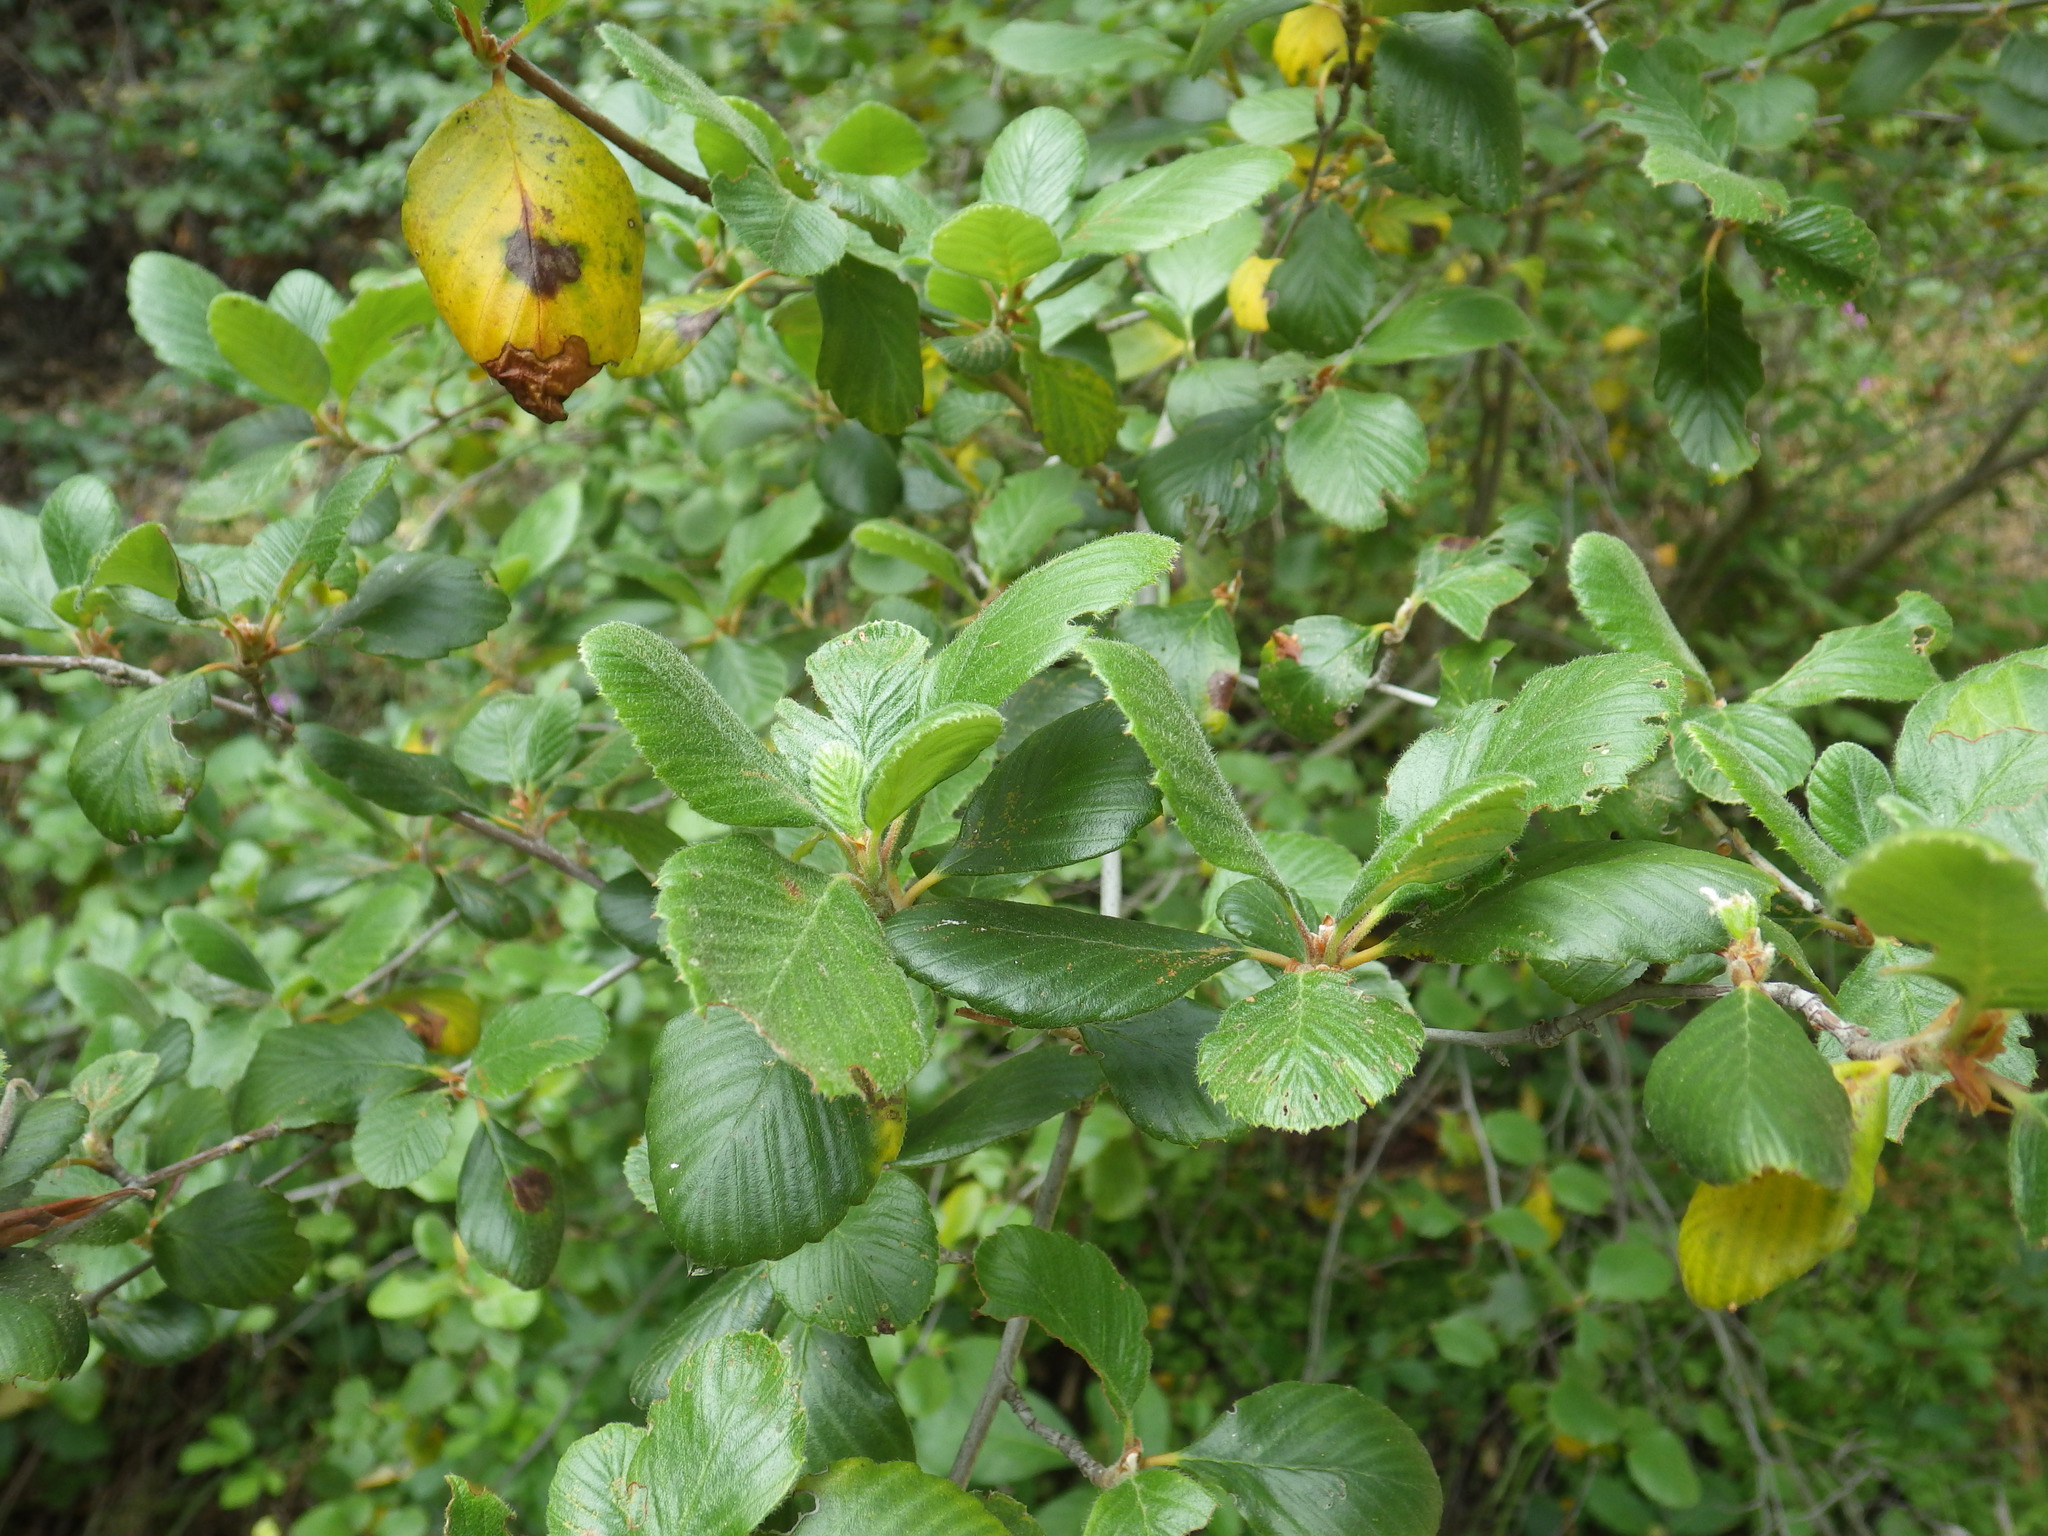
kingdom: Plantae
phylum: Tracheophyta
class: Magnoliopsida
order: Rosales
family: Rosaceae
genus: Cercocarpus
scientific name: Cercocarpus betuloides
